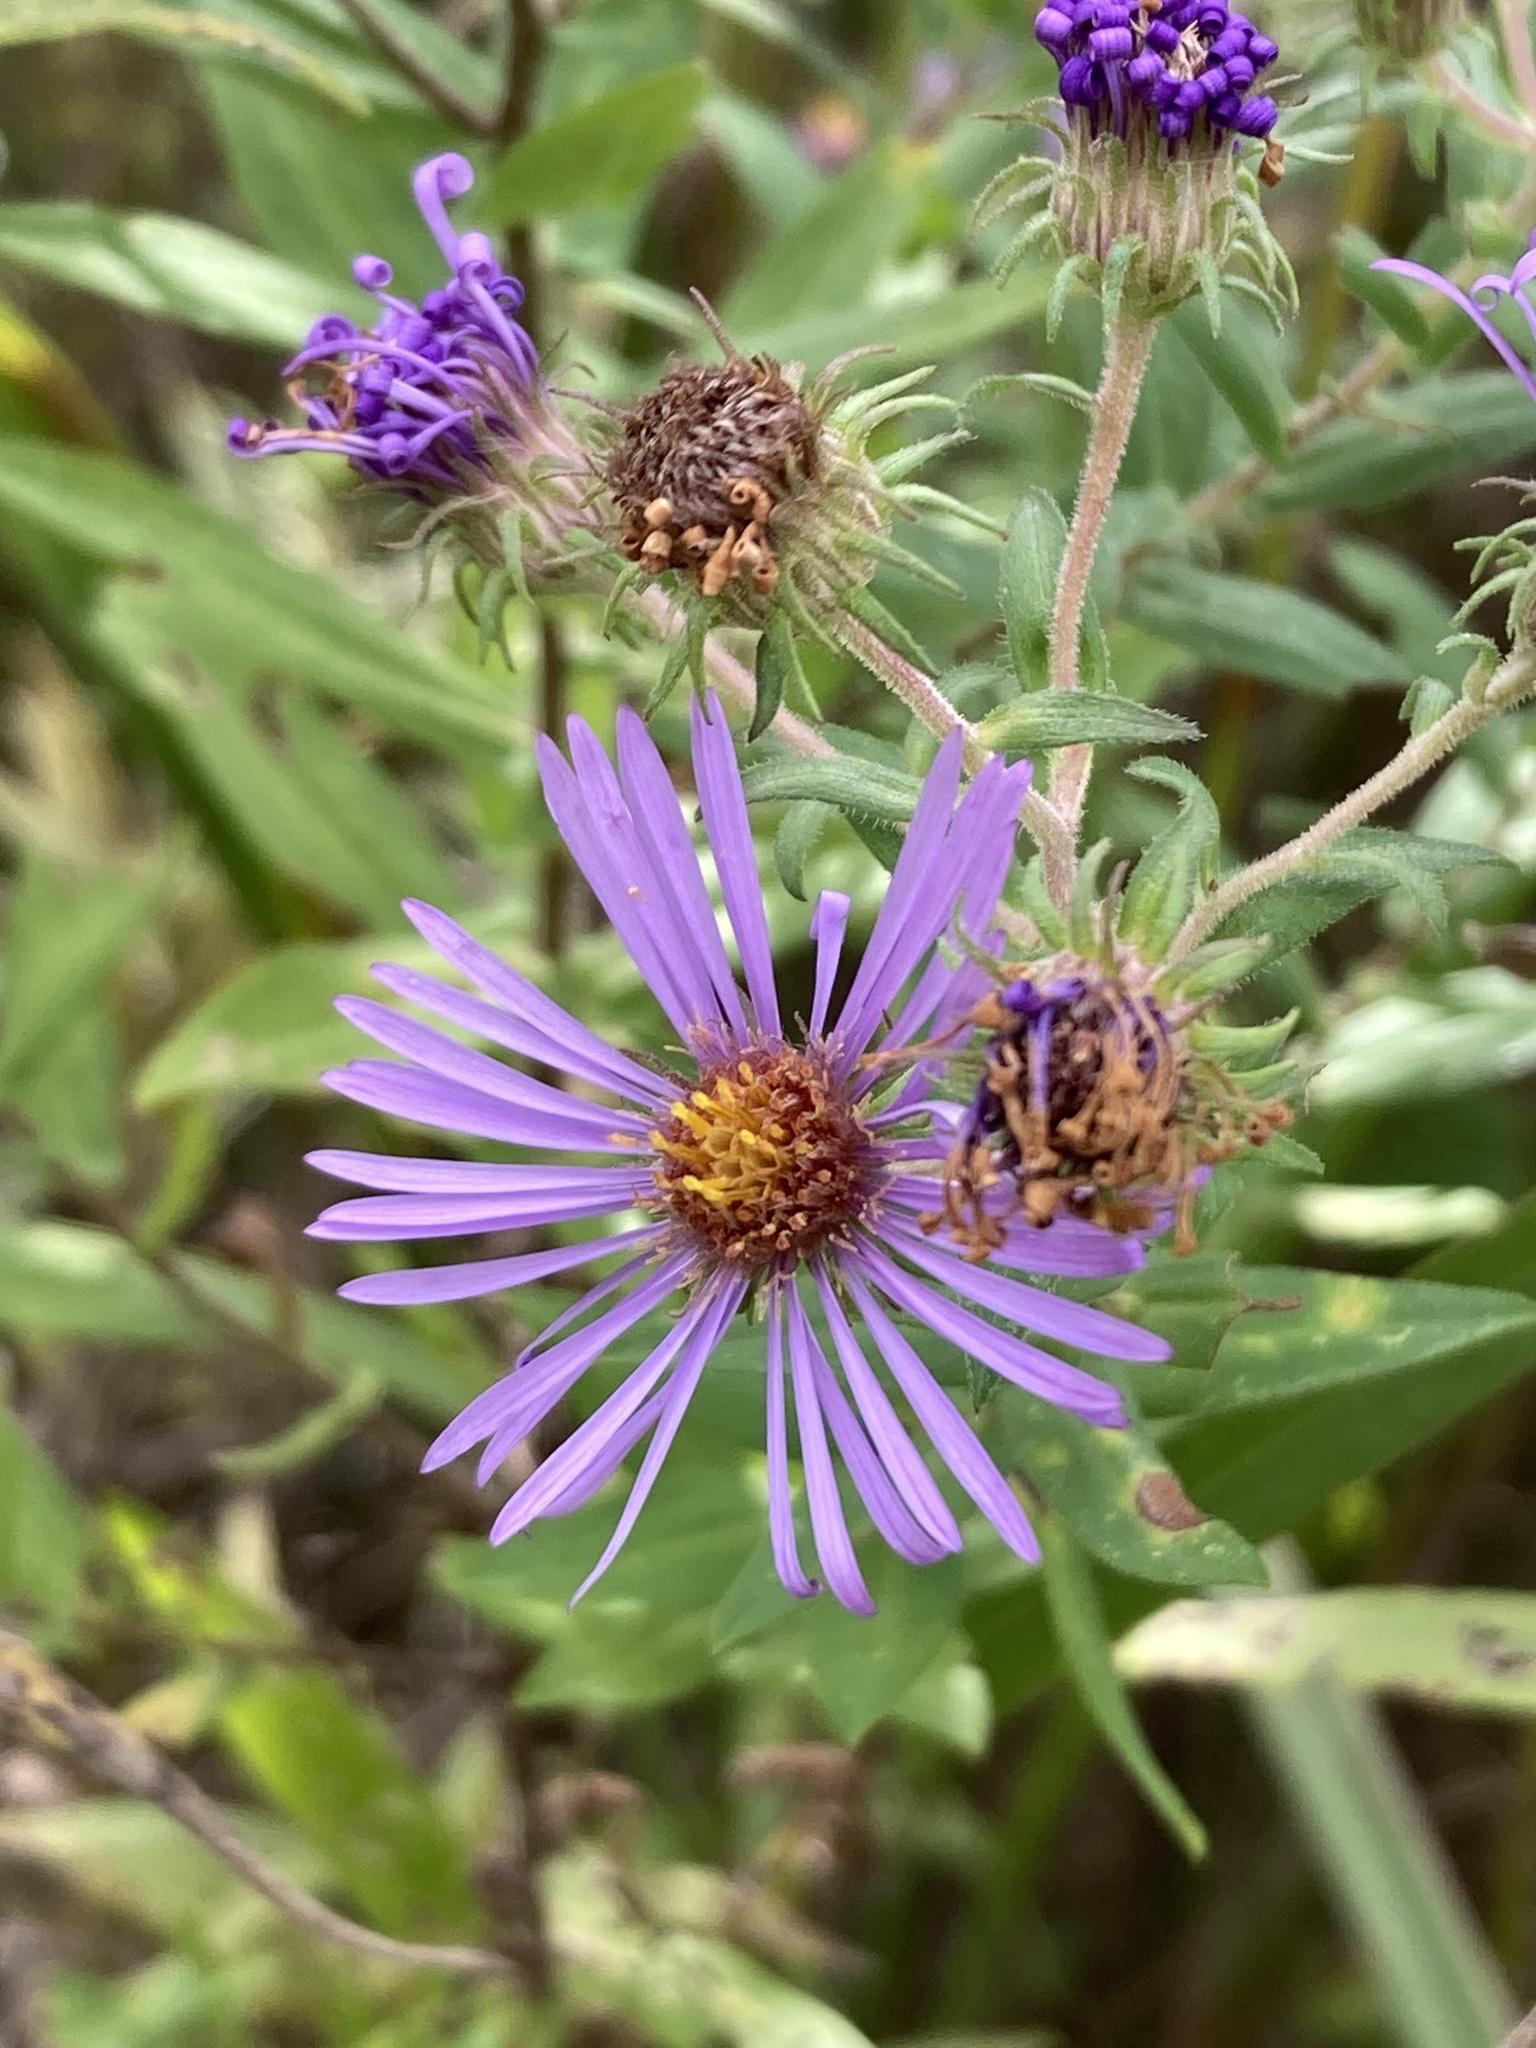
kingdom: Plantae
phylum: Tracheophyta
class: Magnoliopsida
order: Asterales
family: Asteraceae
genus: Symphyotrichum
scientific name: Symphyotrichum novae-angliae
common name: Michaelmas daisy
